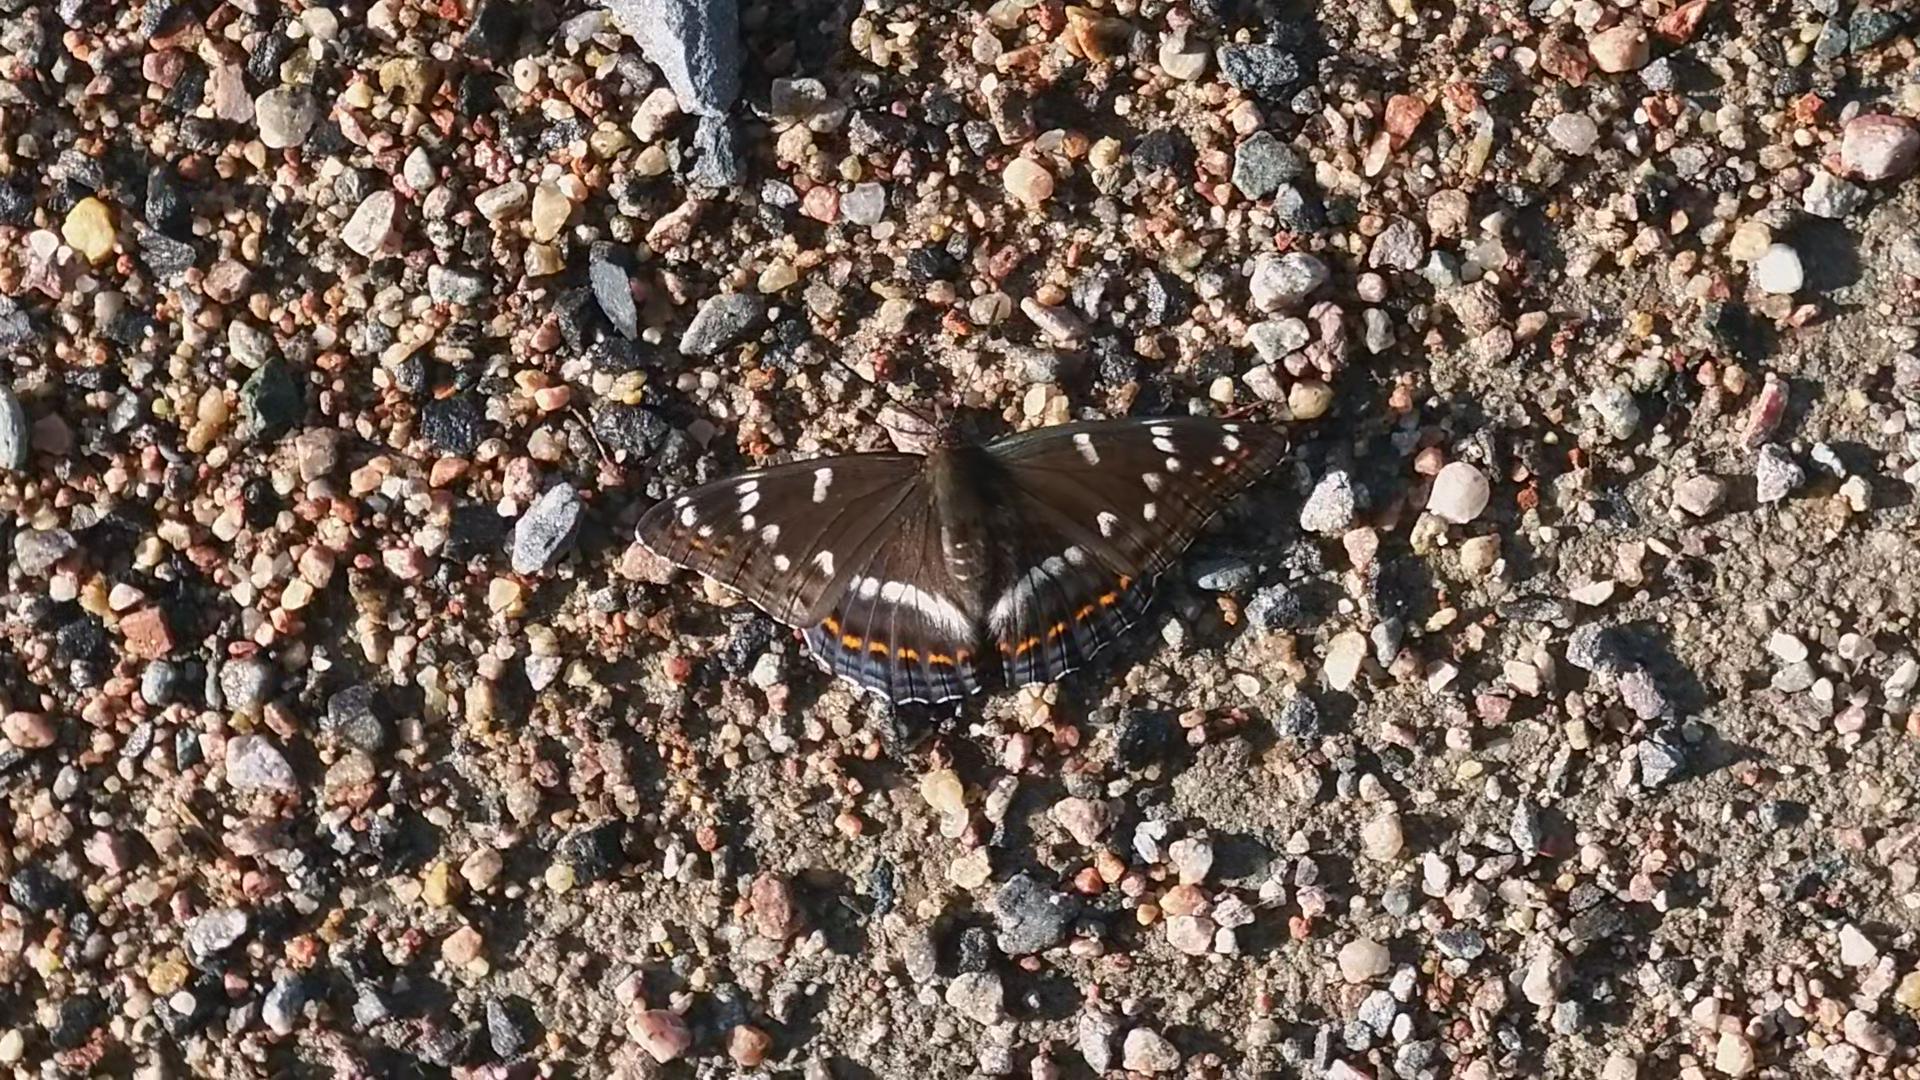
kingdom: Animalia
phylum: Arthropoda
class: Insecta
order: Lepidoptera
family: Nymphalidae
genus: Limenitis
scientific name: Limenitis populi
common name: Poplar admiral
